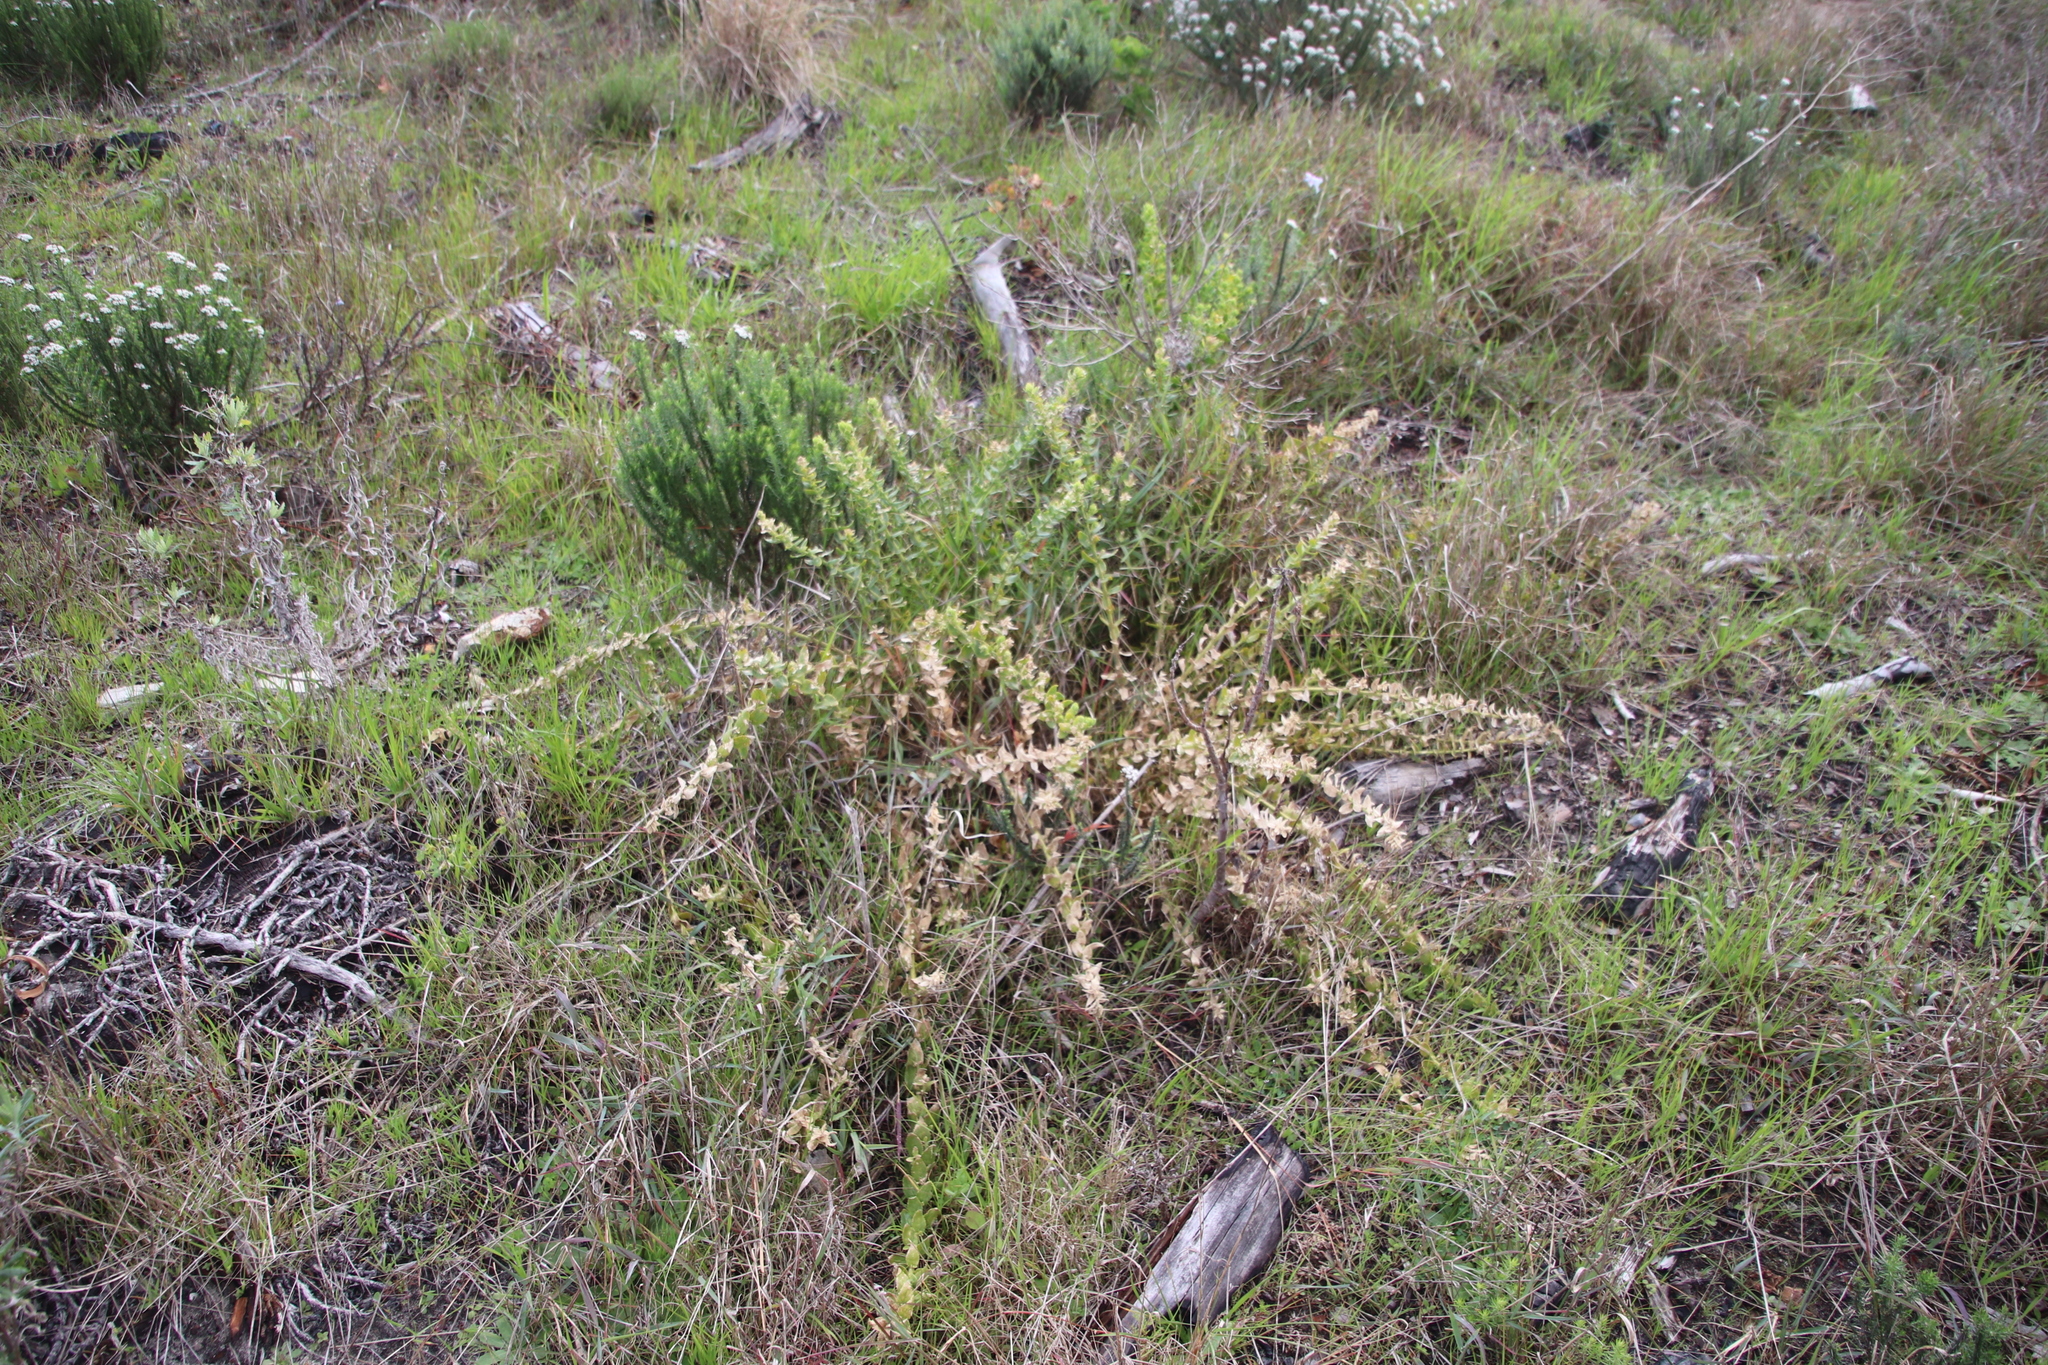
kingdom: Plantae
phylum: Tracheophyta
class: Magnoliopsida
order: Lamiales
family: Scrophulariaceae
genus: Oftia
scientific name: Oftia africana
